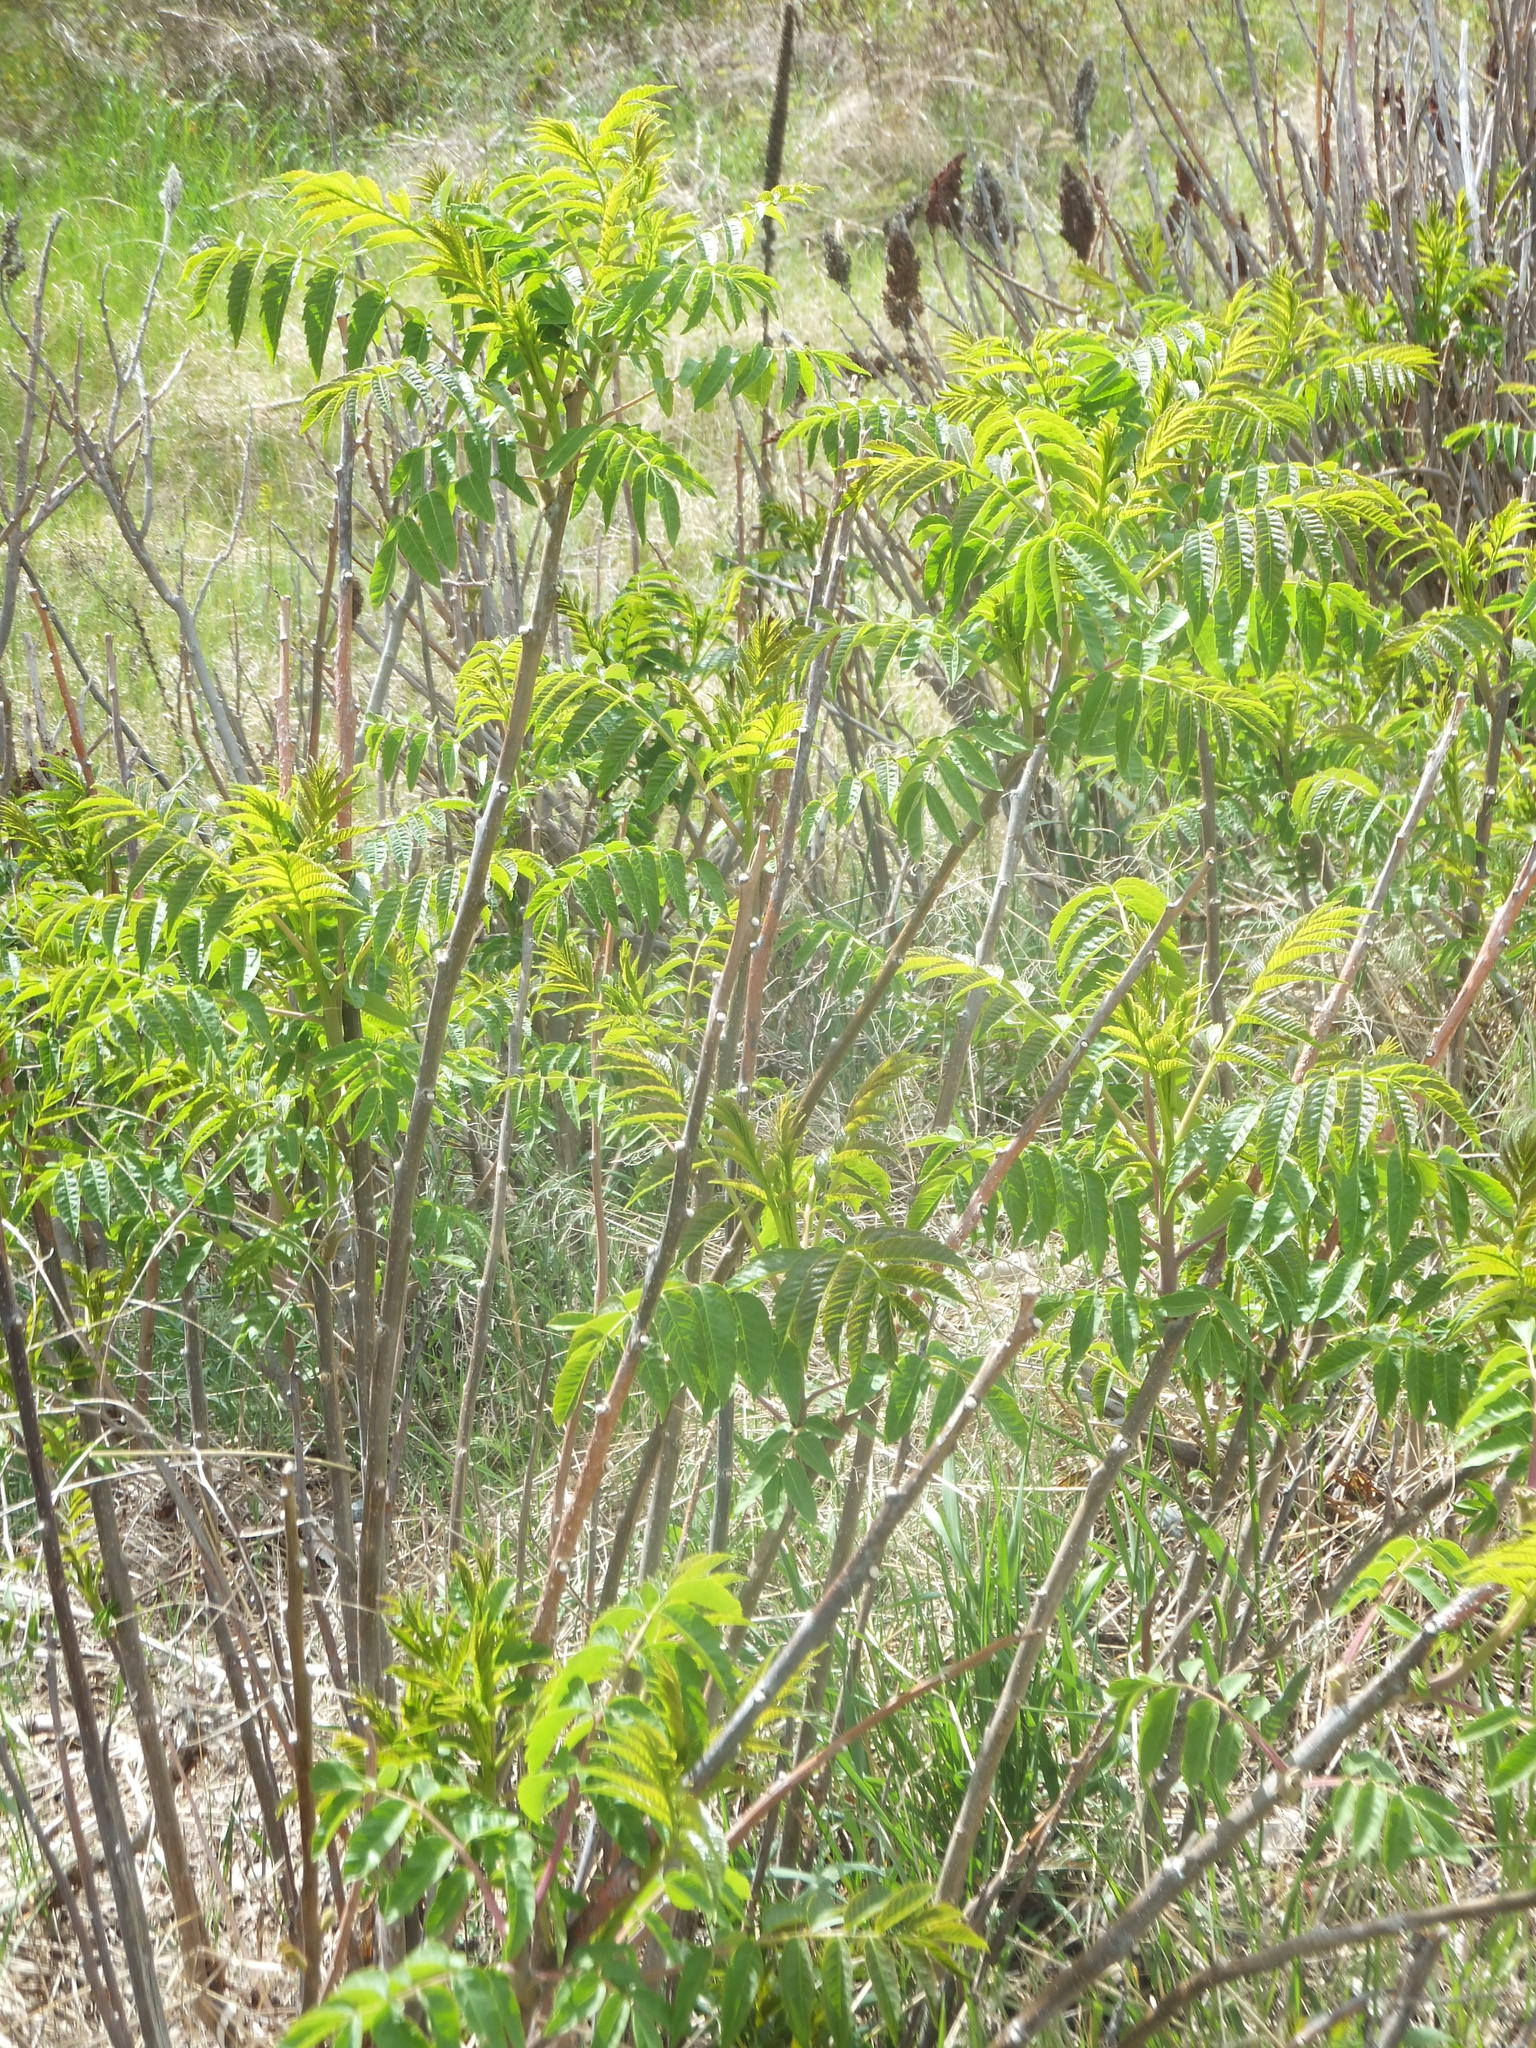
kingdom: Plantae
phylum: Tracheophyta
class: Magnoliopsida
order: Sapindales
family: Anacardiaceae
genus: Rhus
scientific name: Rhus glabra
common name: Scarlet sumac
